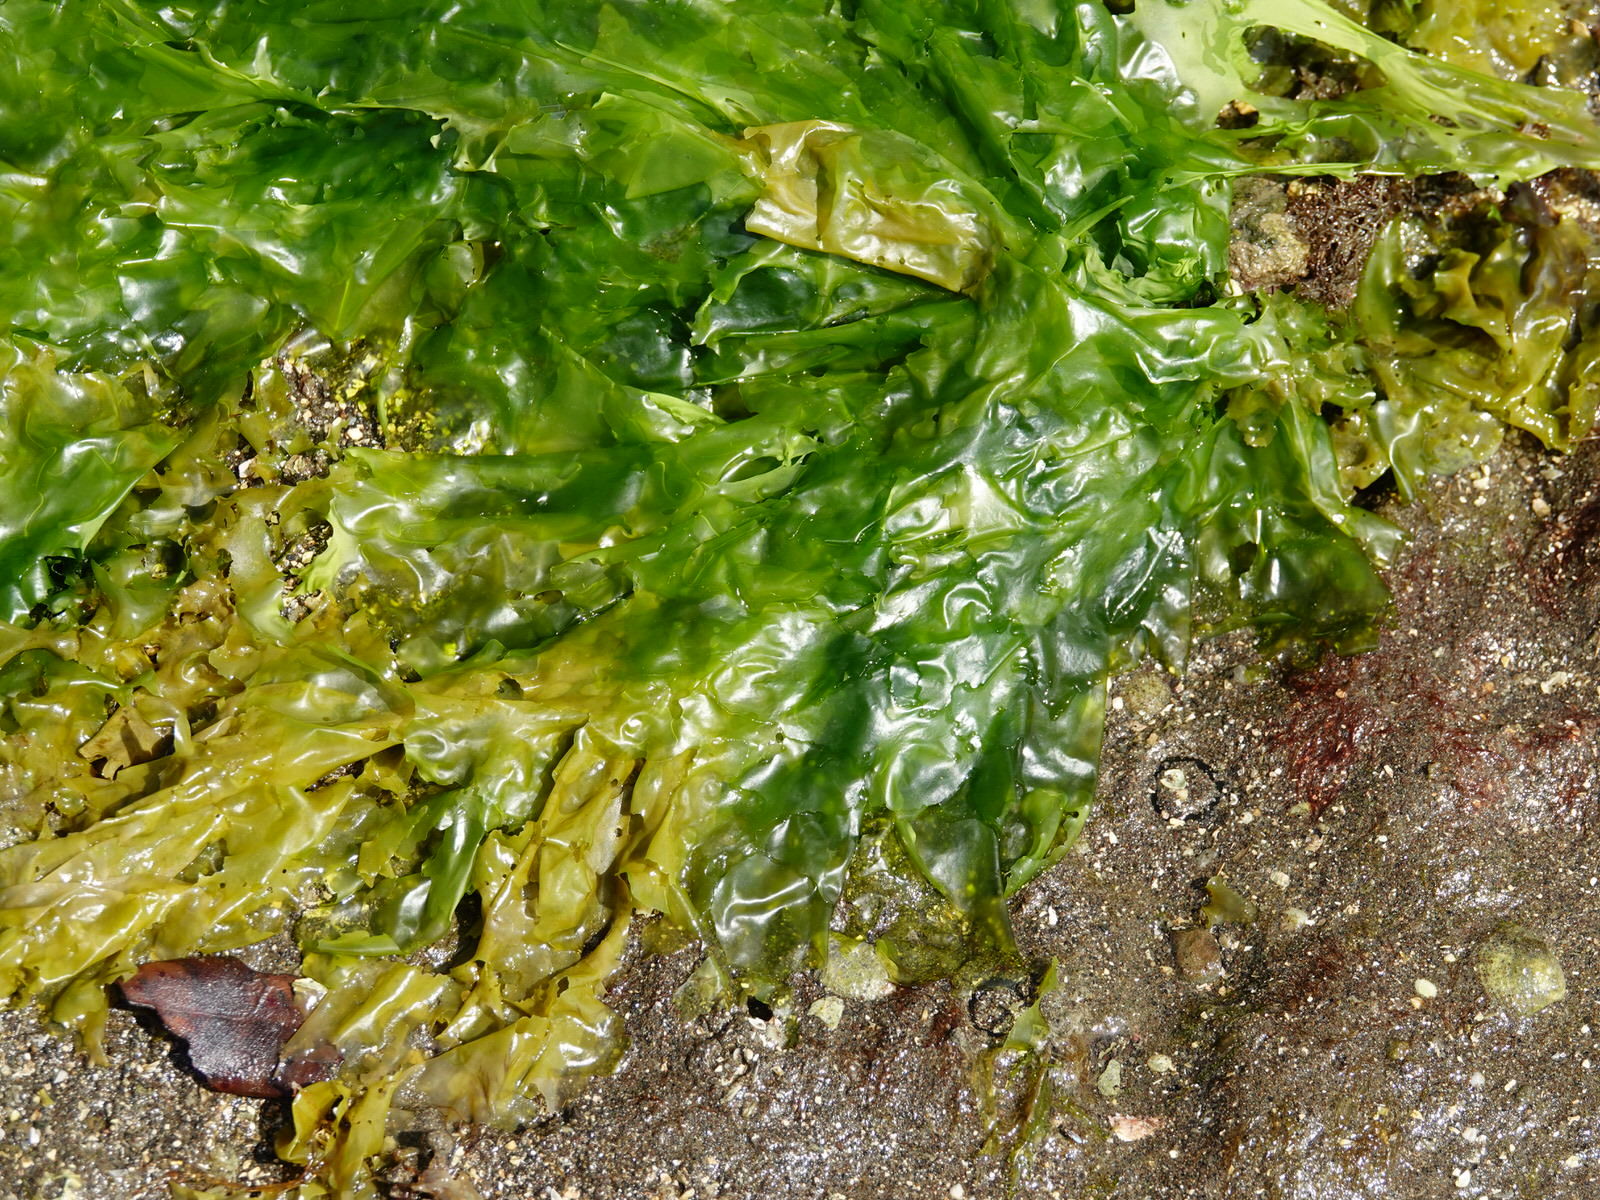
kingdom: Plantae
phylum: Chlorophyta
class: Ulvophyceae
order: Ulvales
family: Ulvaceae
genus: Ulva
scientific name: Ulva
